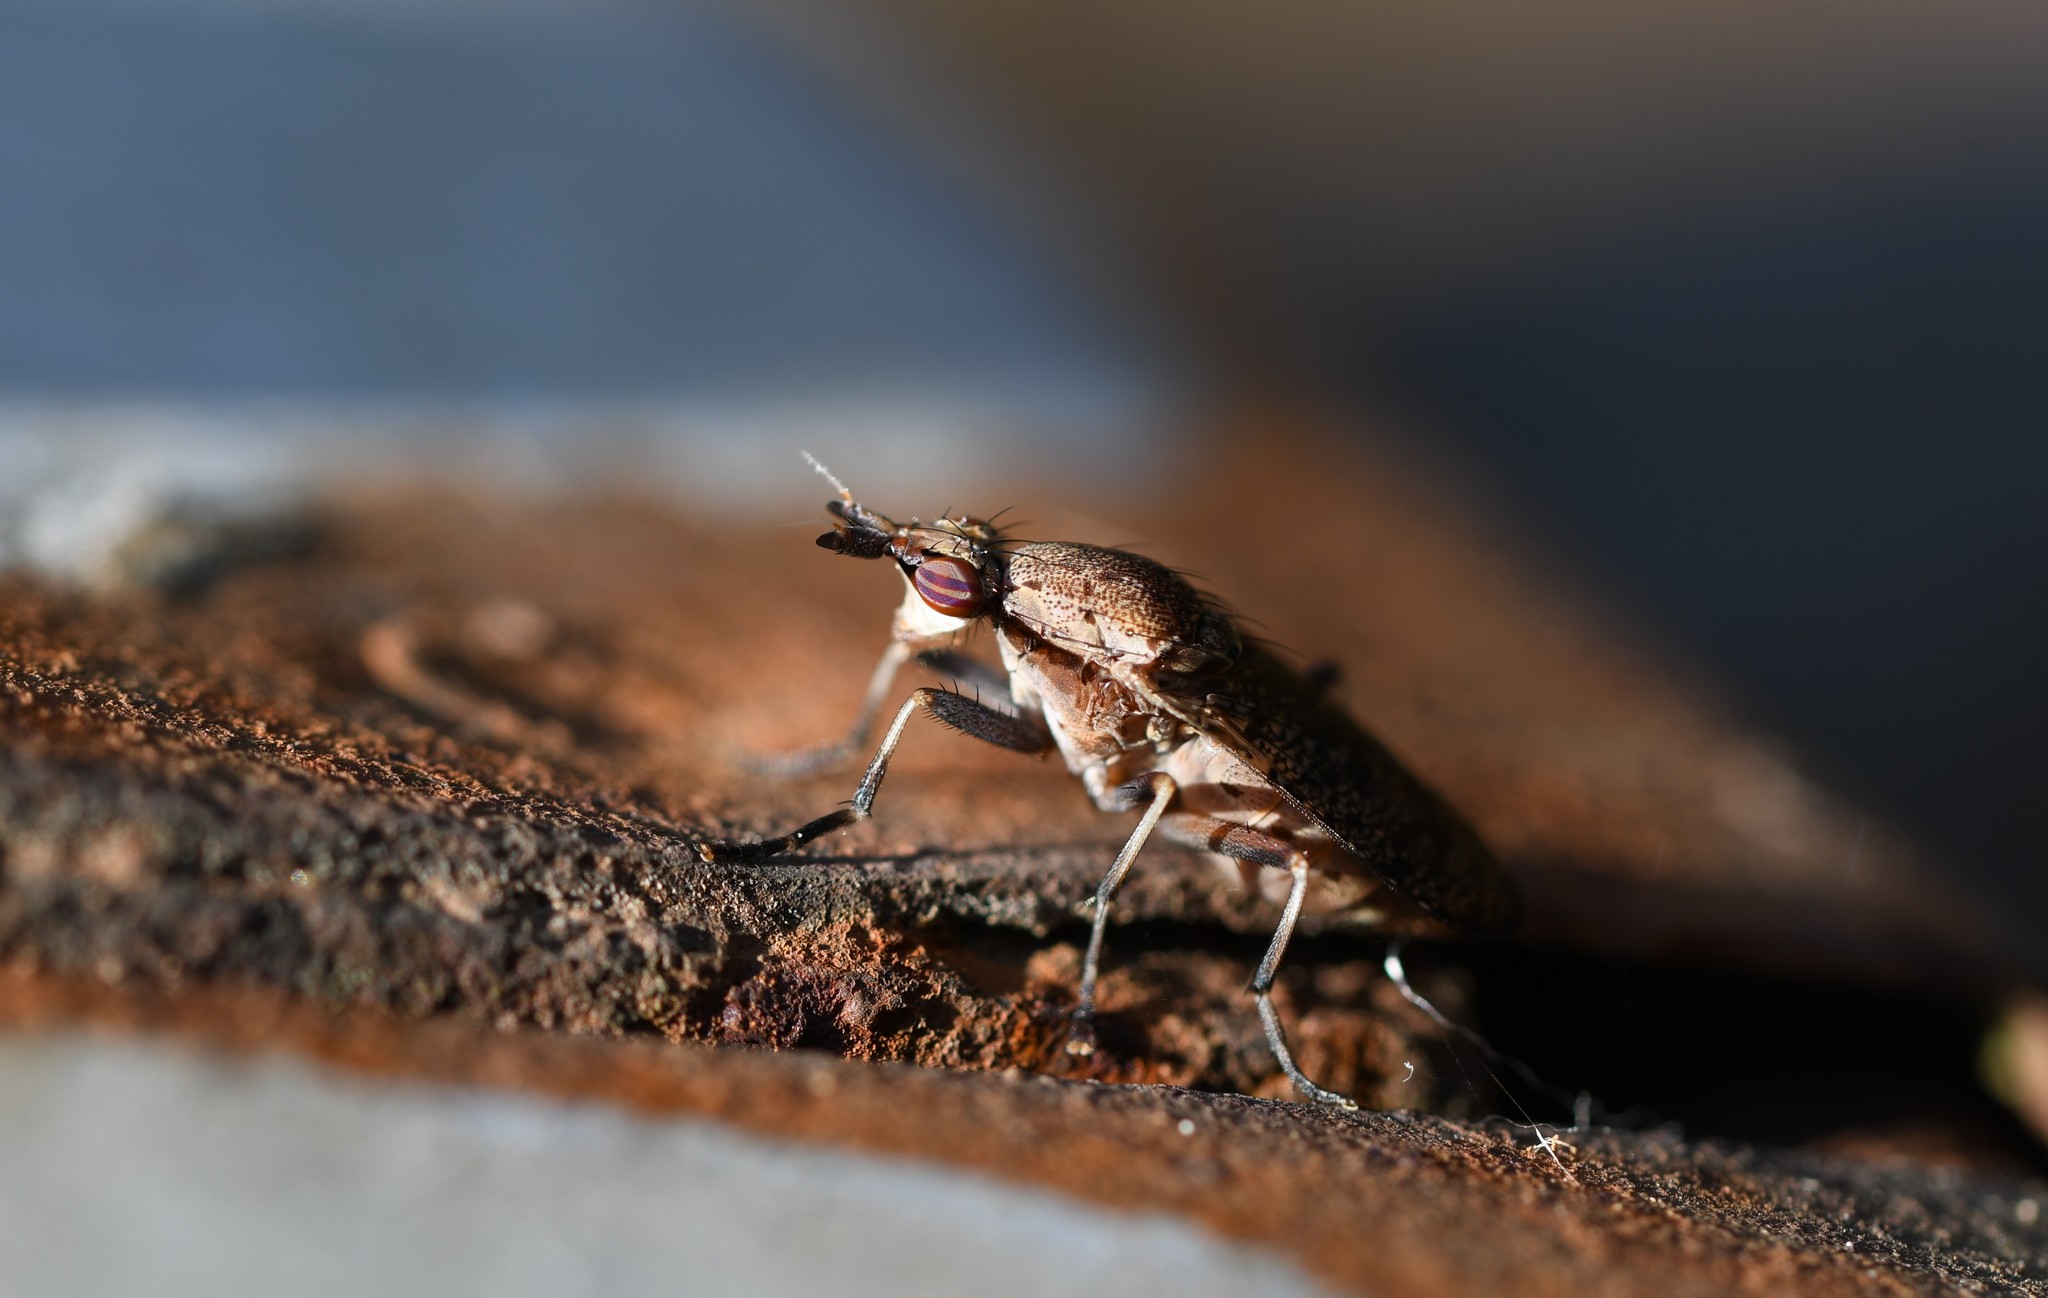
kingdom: Animalia
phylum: Arthropoda
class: Insecta
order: Diptera
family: Sciomyzidae
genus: Euthycera
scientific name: Euthycera cribrata
